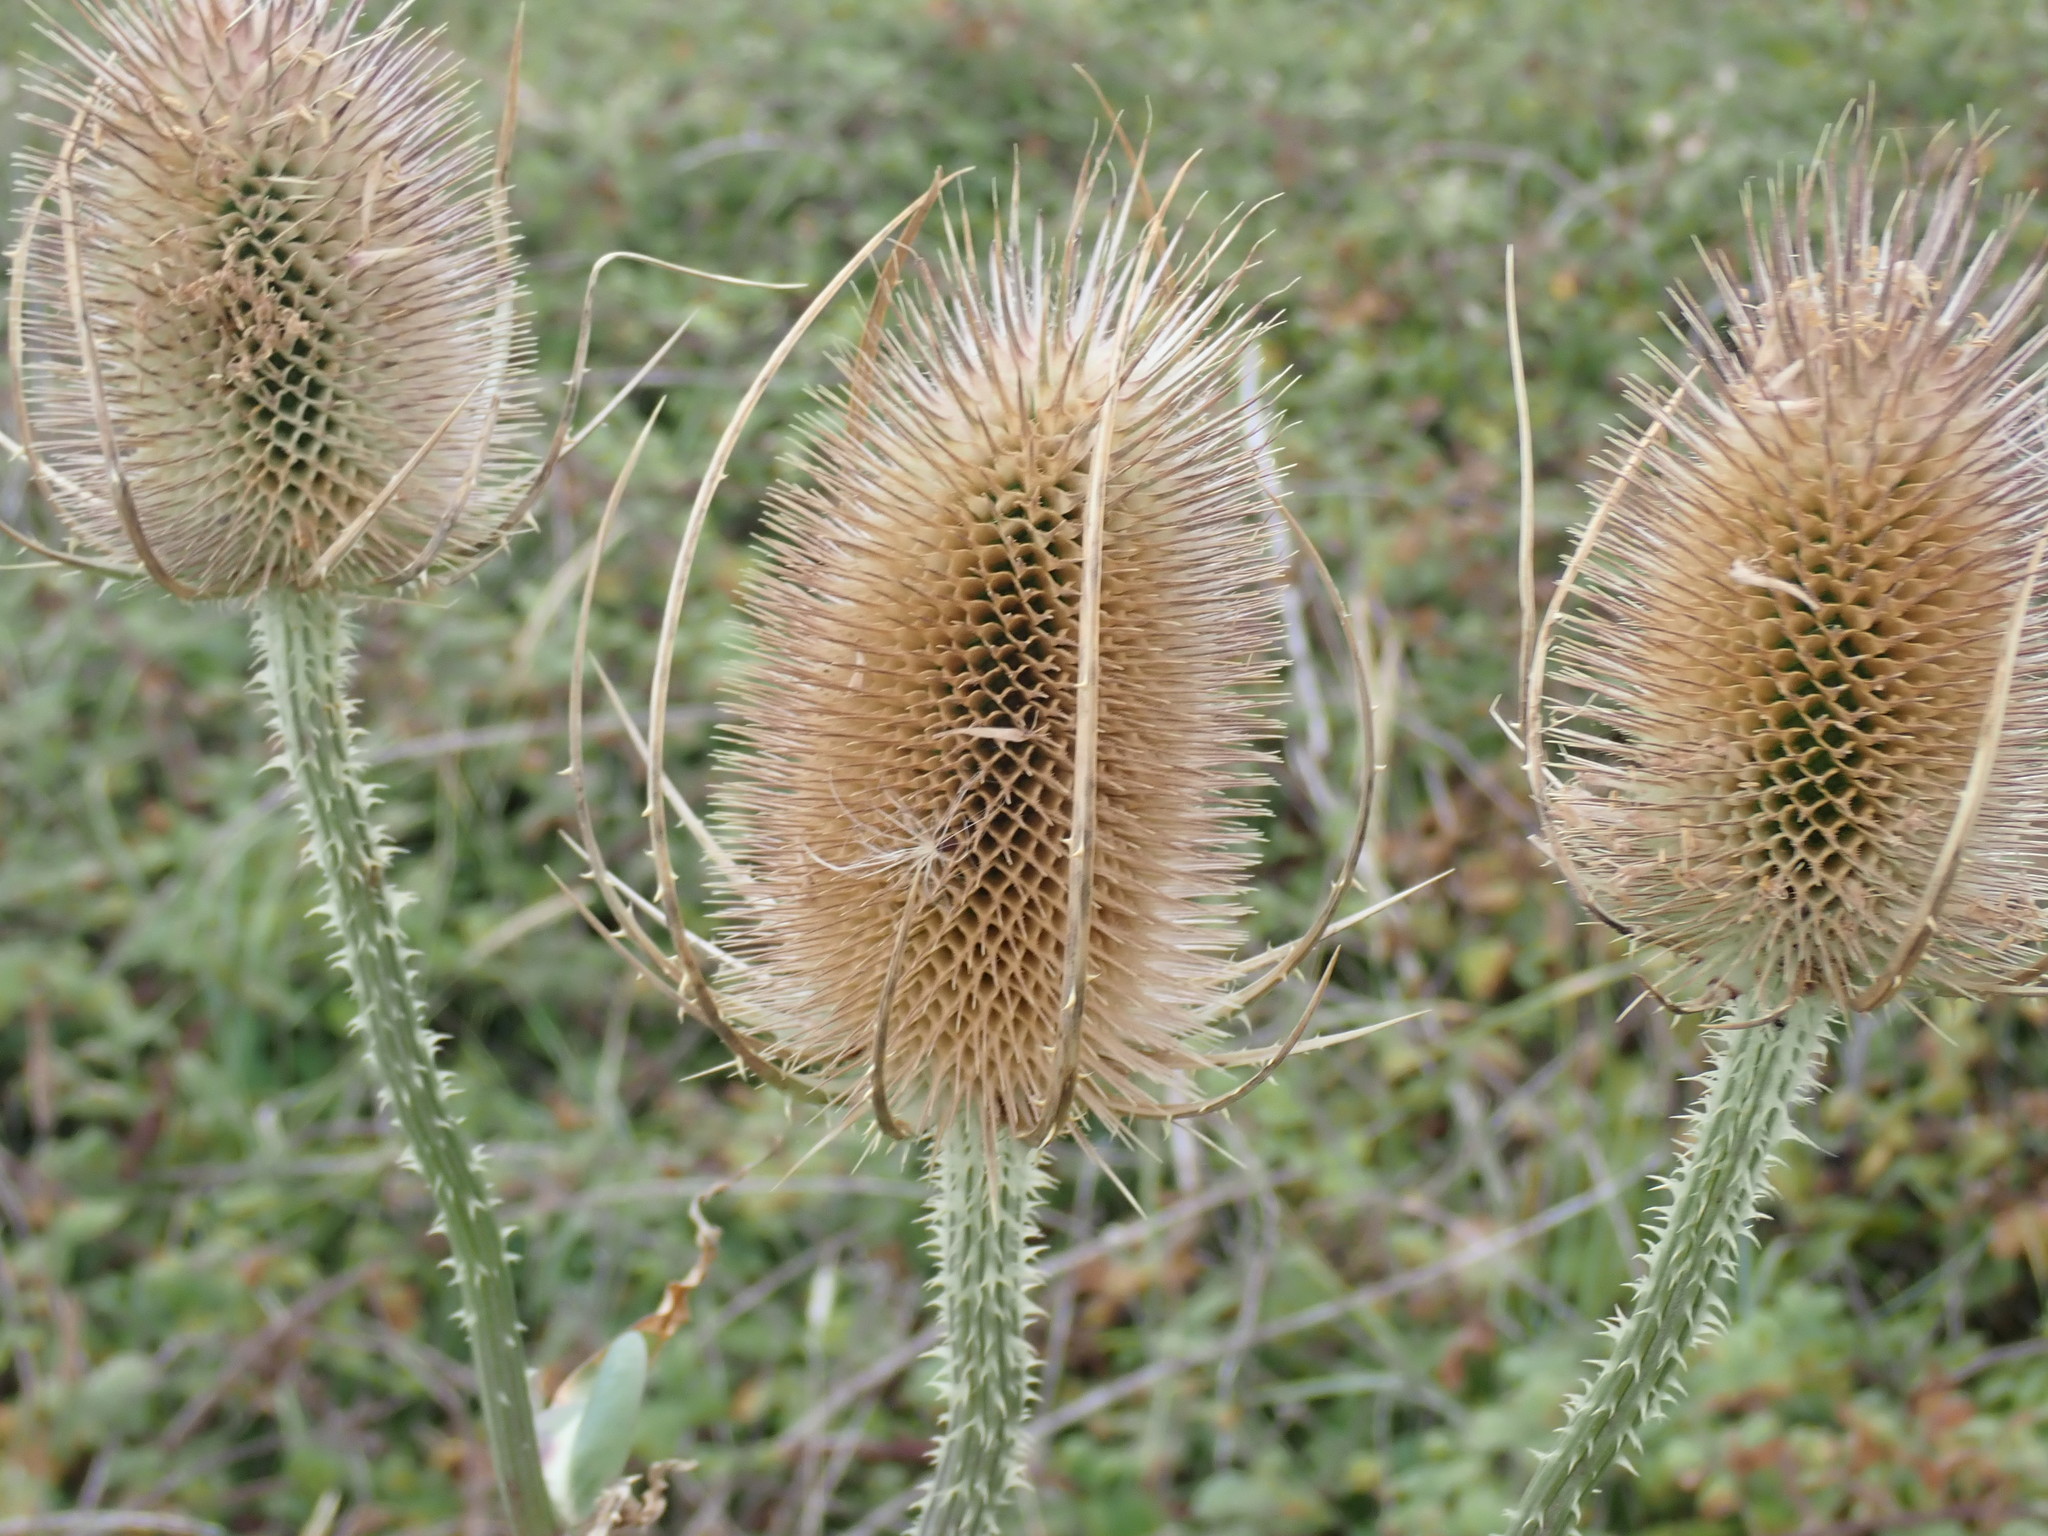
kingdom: Plantae
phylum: Tracheophyta
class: Magnoliopsida
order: Dipsacales
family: Caprifoliaceae
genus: Dipsacus
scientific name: Dipsacus fullonum
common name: Teasel
